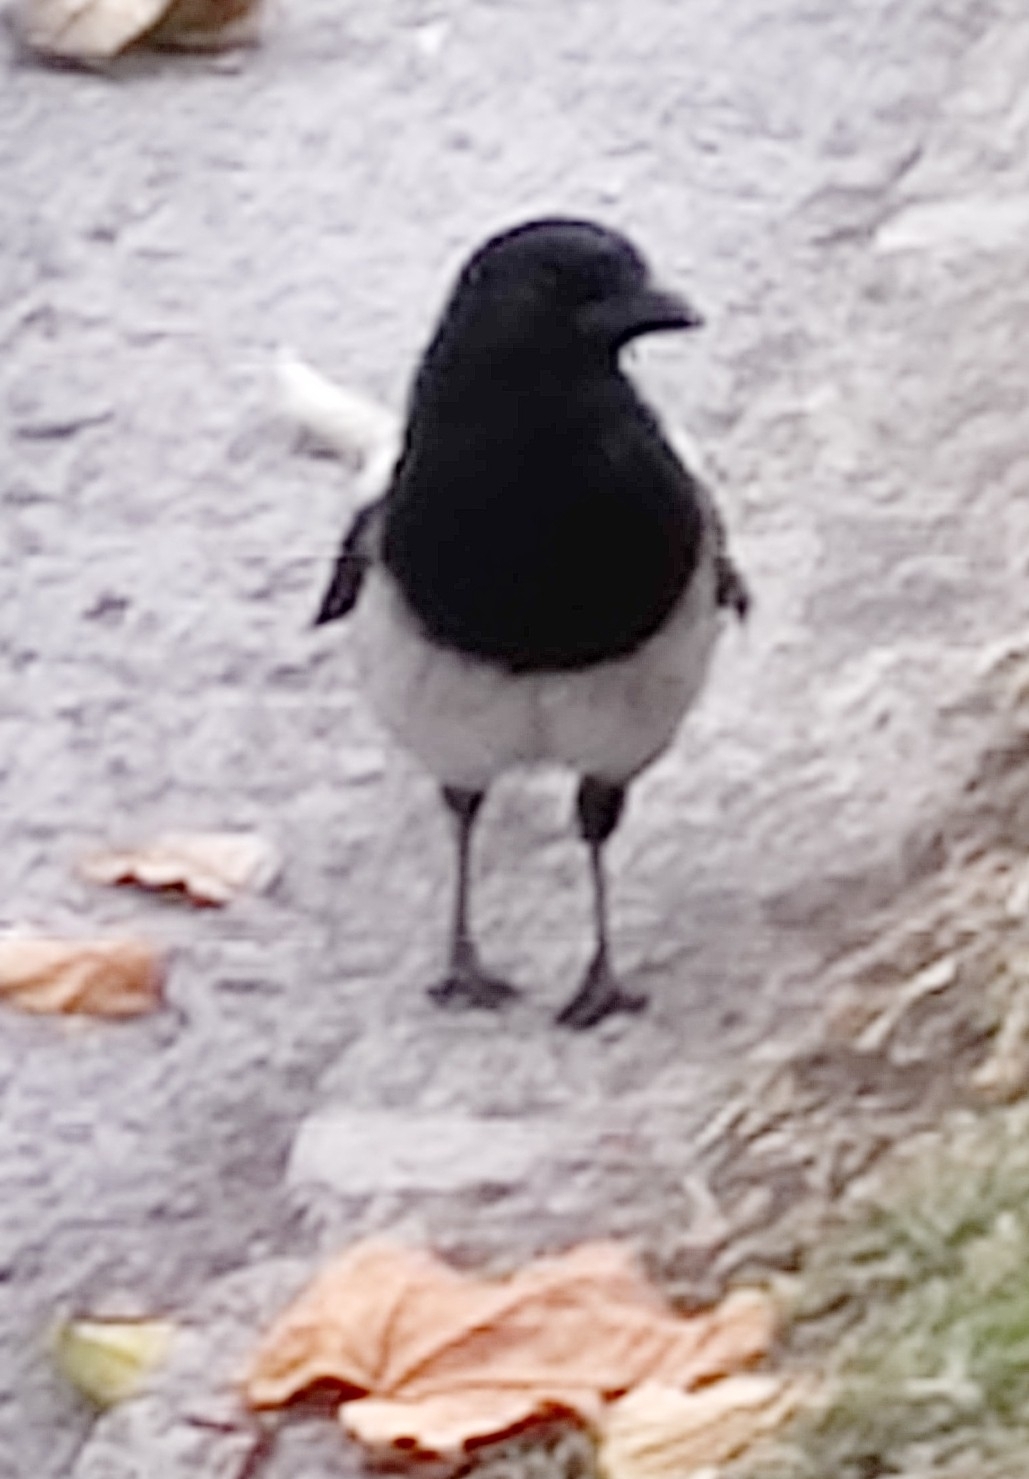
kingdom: Animalia
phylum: Chordata
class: Aves
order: Passeriformes
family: Corvidae
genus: Pica
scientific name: Pica pica
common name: Eurasian magpie
